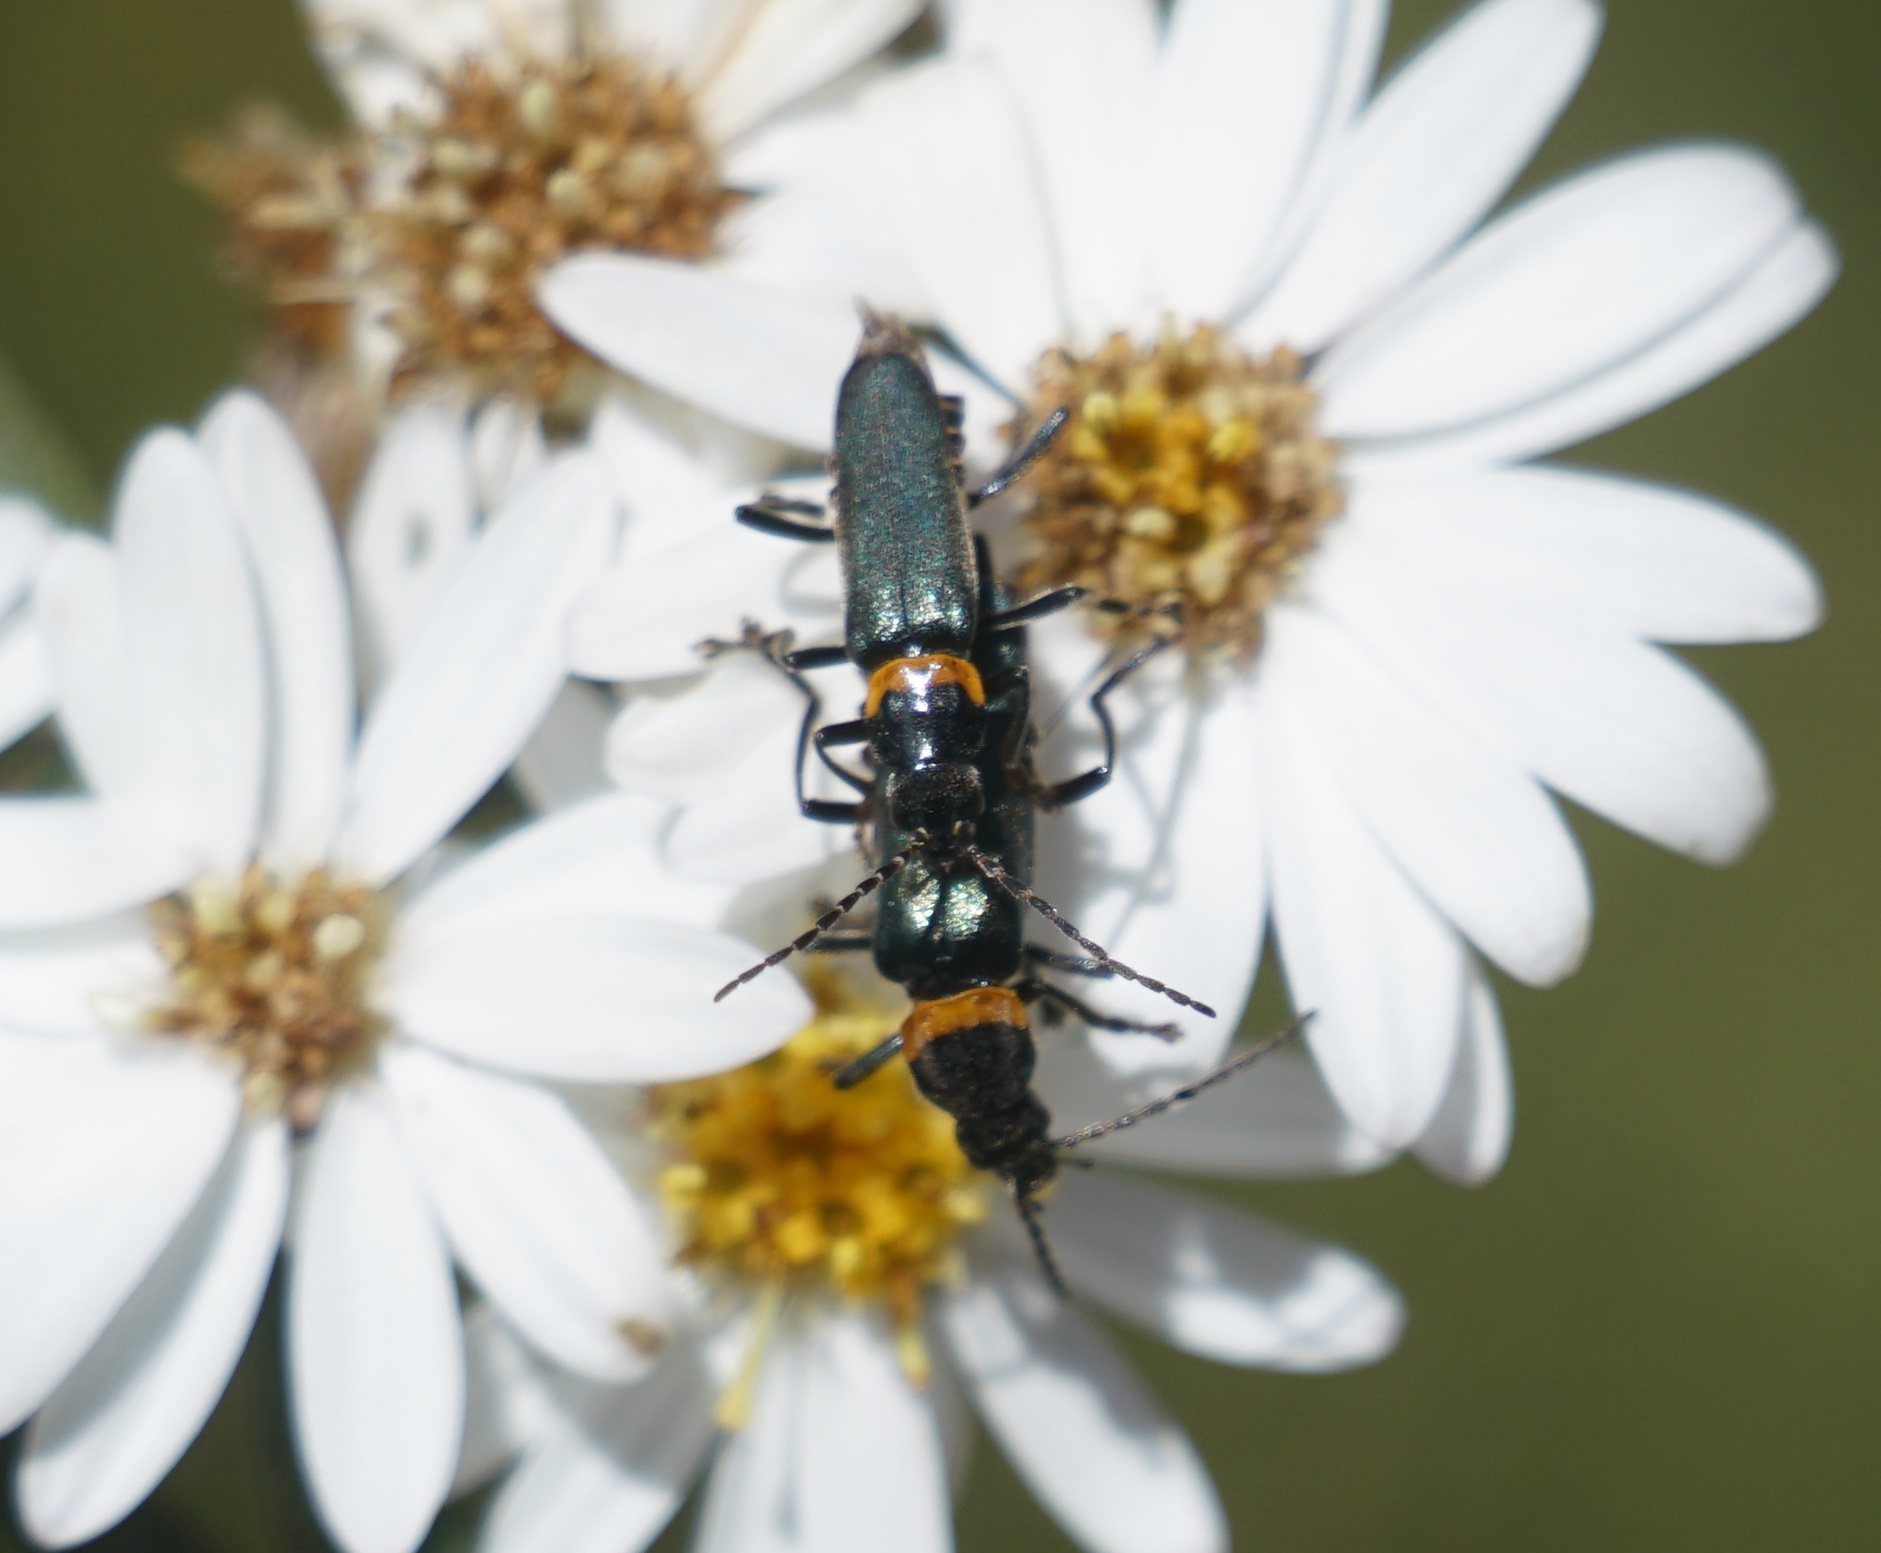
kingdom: Animalia
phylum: Arthropoda
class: Insecta
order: Coleoptera
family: Cantharidae
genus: Chauliognathus
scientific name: Chauliognathus
